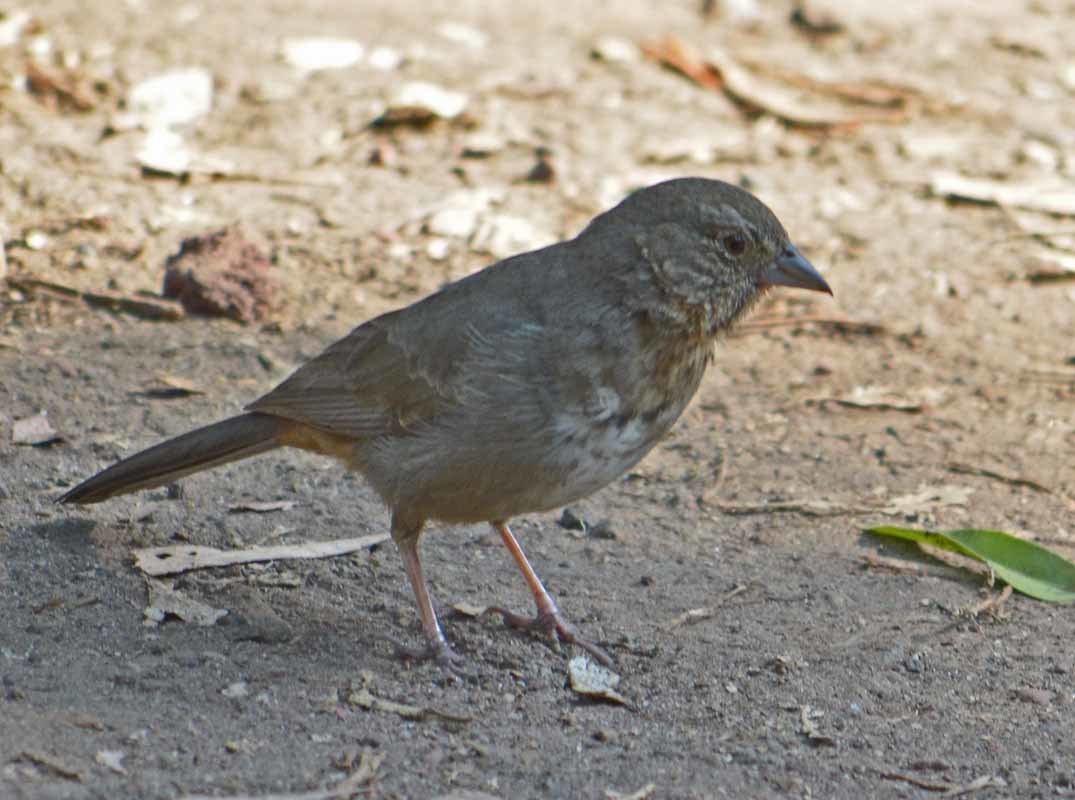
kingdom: Animalia
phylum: Chordata
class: Aves
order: Passeriformes
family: Passerellidae
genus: Melozone
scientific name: Melozone fusca
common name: Canyon towhee
